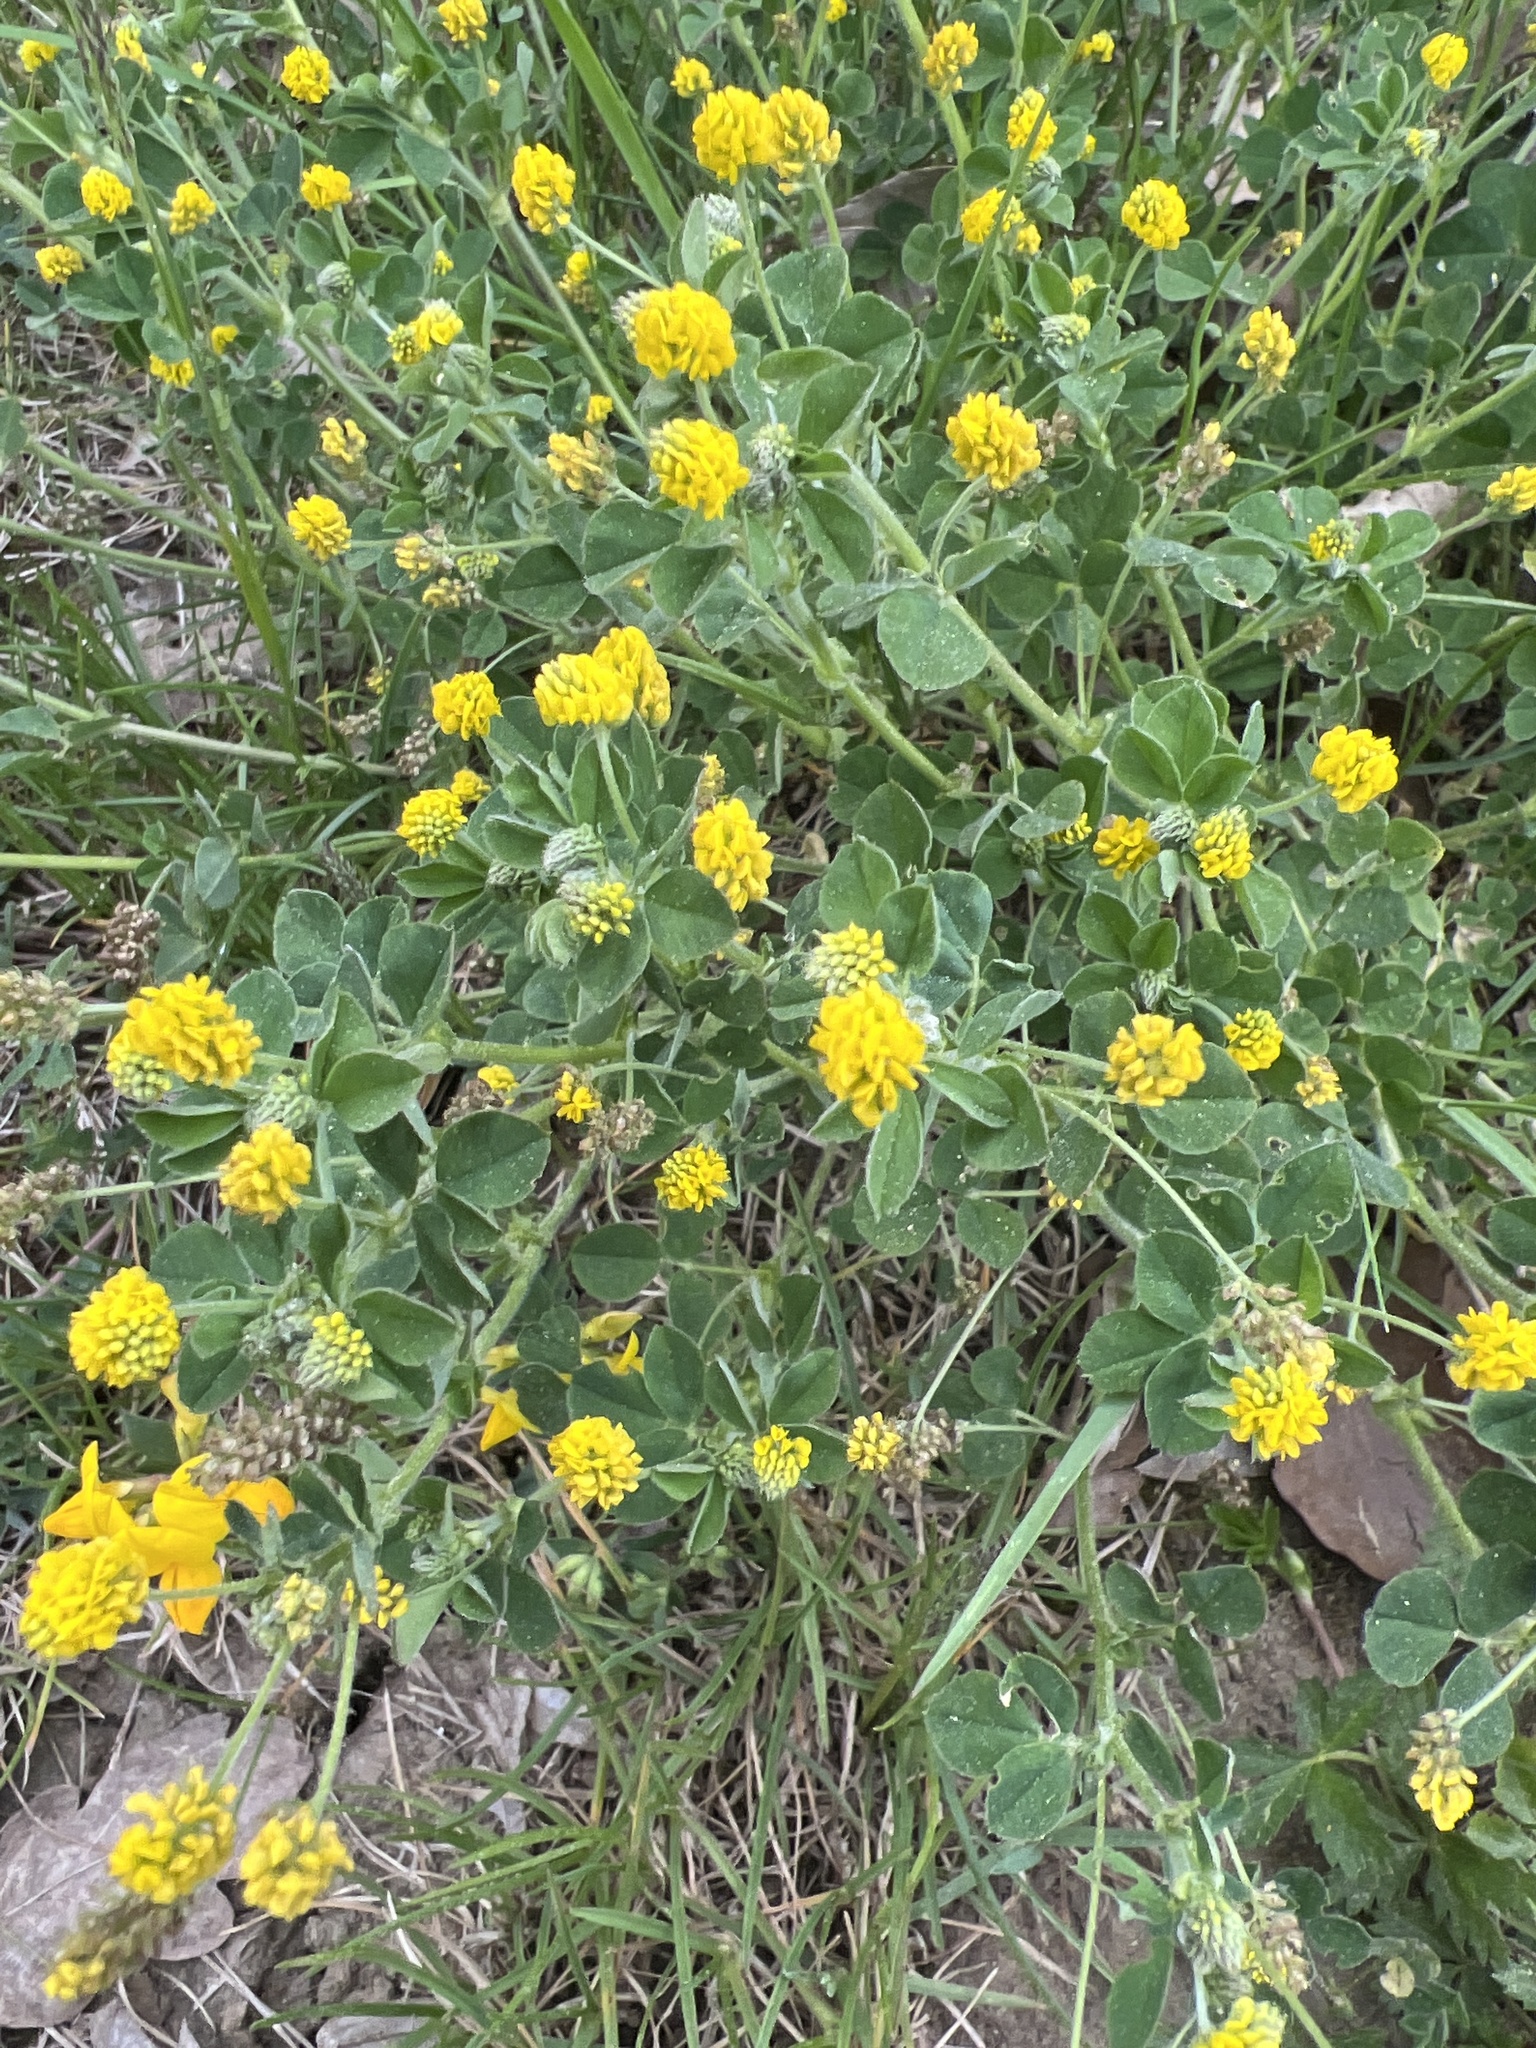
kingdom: Plantae
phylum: Tracheophyta
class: Magnoliopsida
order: Fabales
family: Fabaceae
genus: Medicago
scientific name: Medicago lupulina
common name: Black medick
